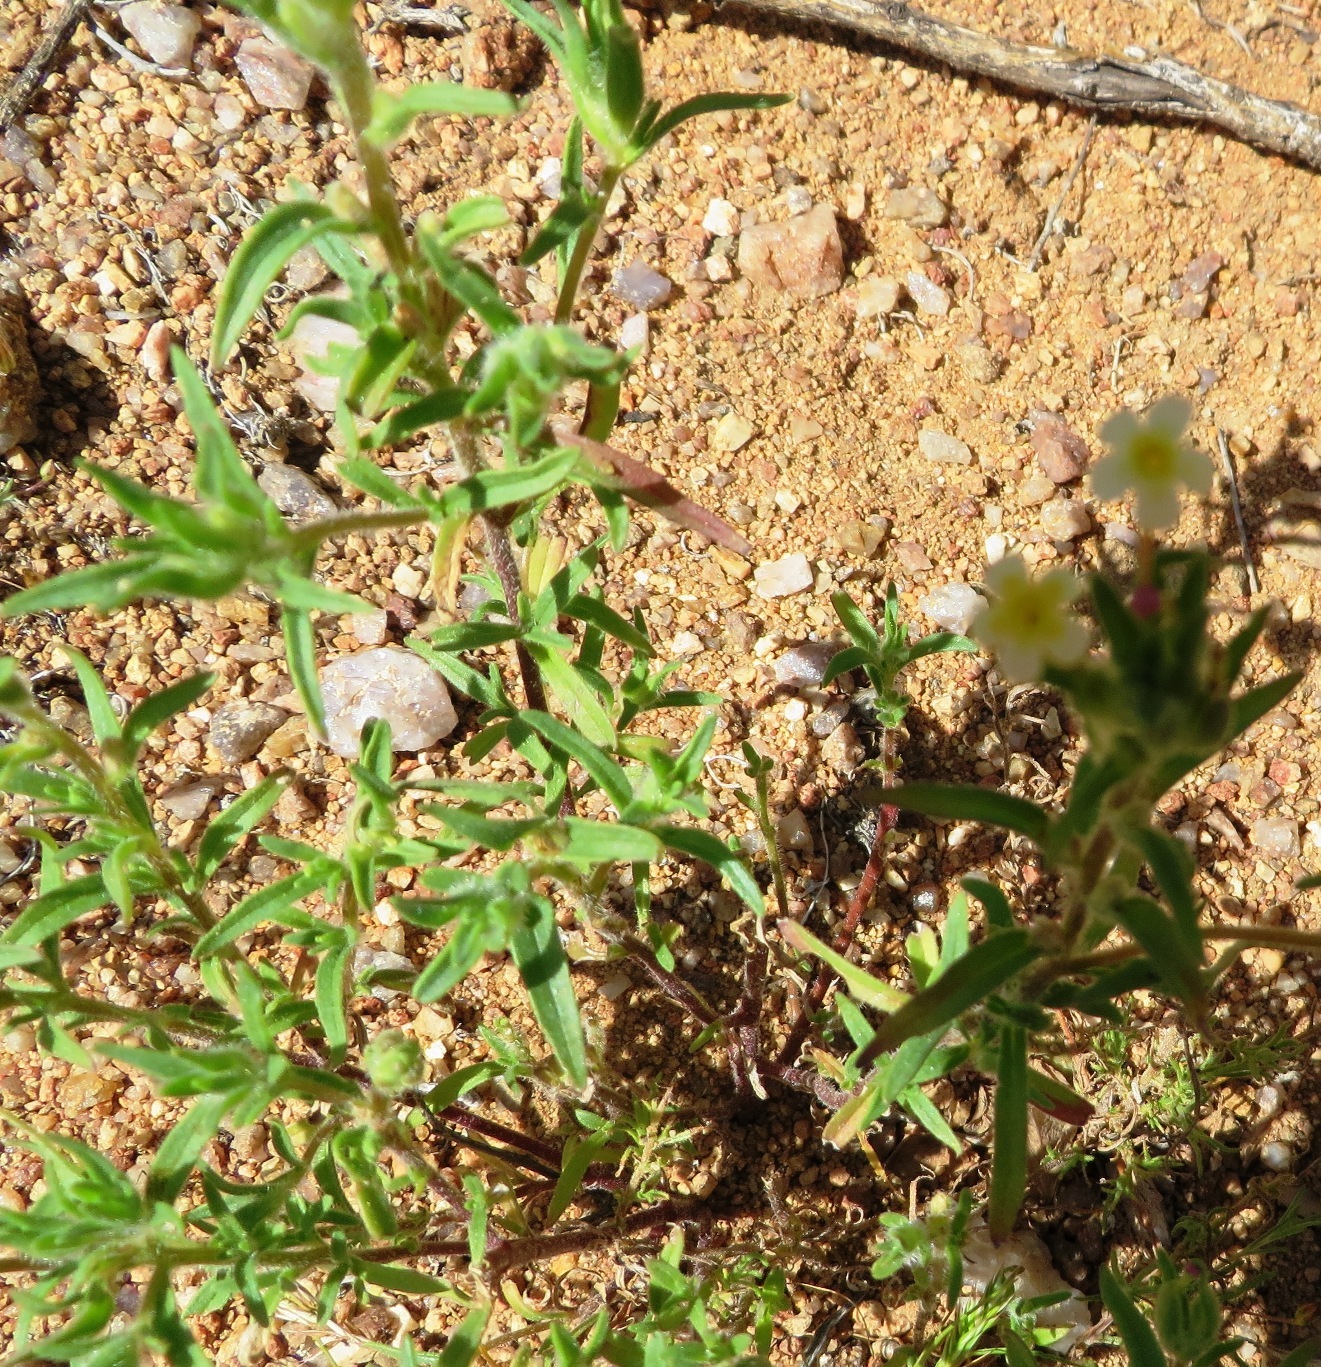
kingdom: Plantae
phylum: Tracheophyta
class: Magnoliopsida
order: Lamiales
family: Scrophulariaceae
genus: Zaluzianskya
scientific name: Zaluzianskya benthamiana
